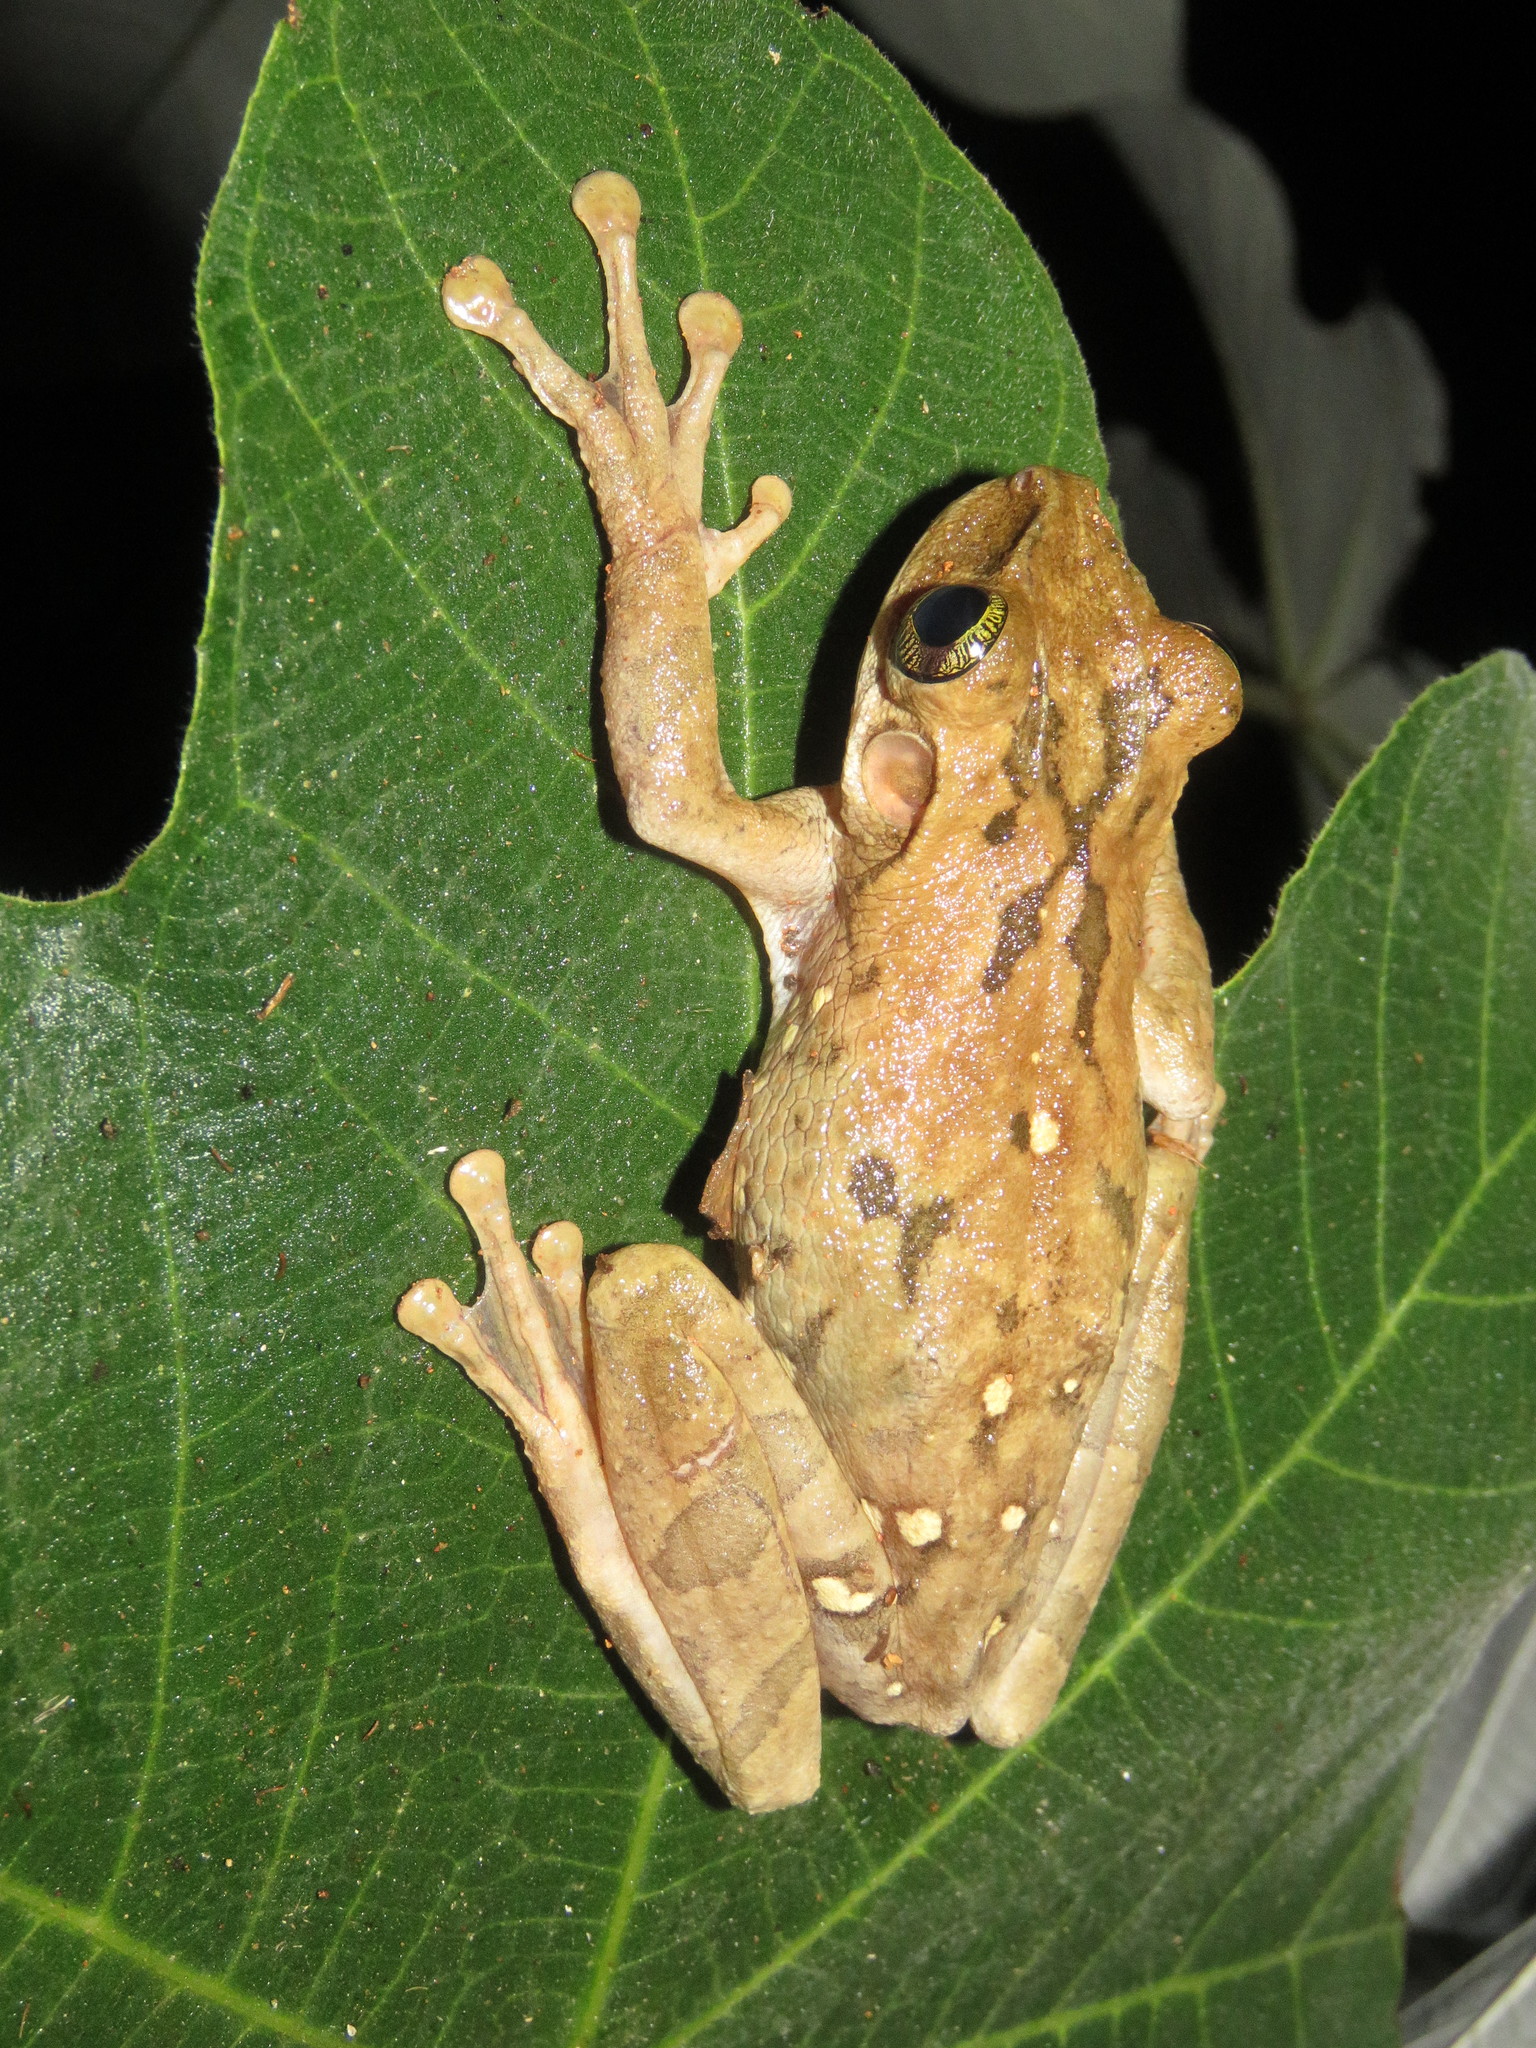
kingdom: Animalia
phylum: Chordata
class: Amphibia
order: Anura
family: Hylidae
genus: Osteocephalus
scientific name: Osteocephalus taurinus
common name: Manaus slender-legged treefrog
